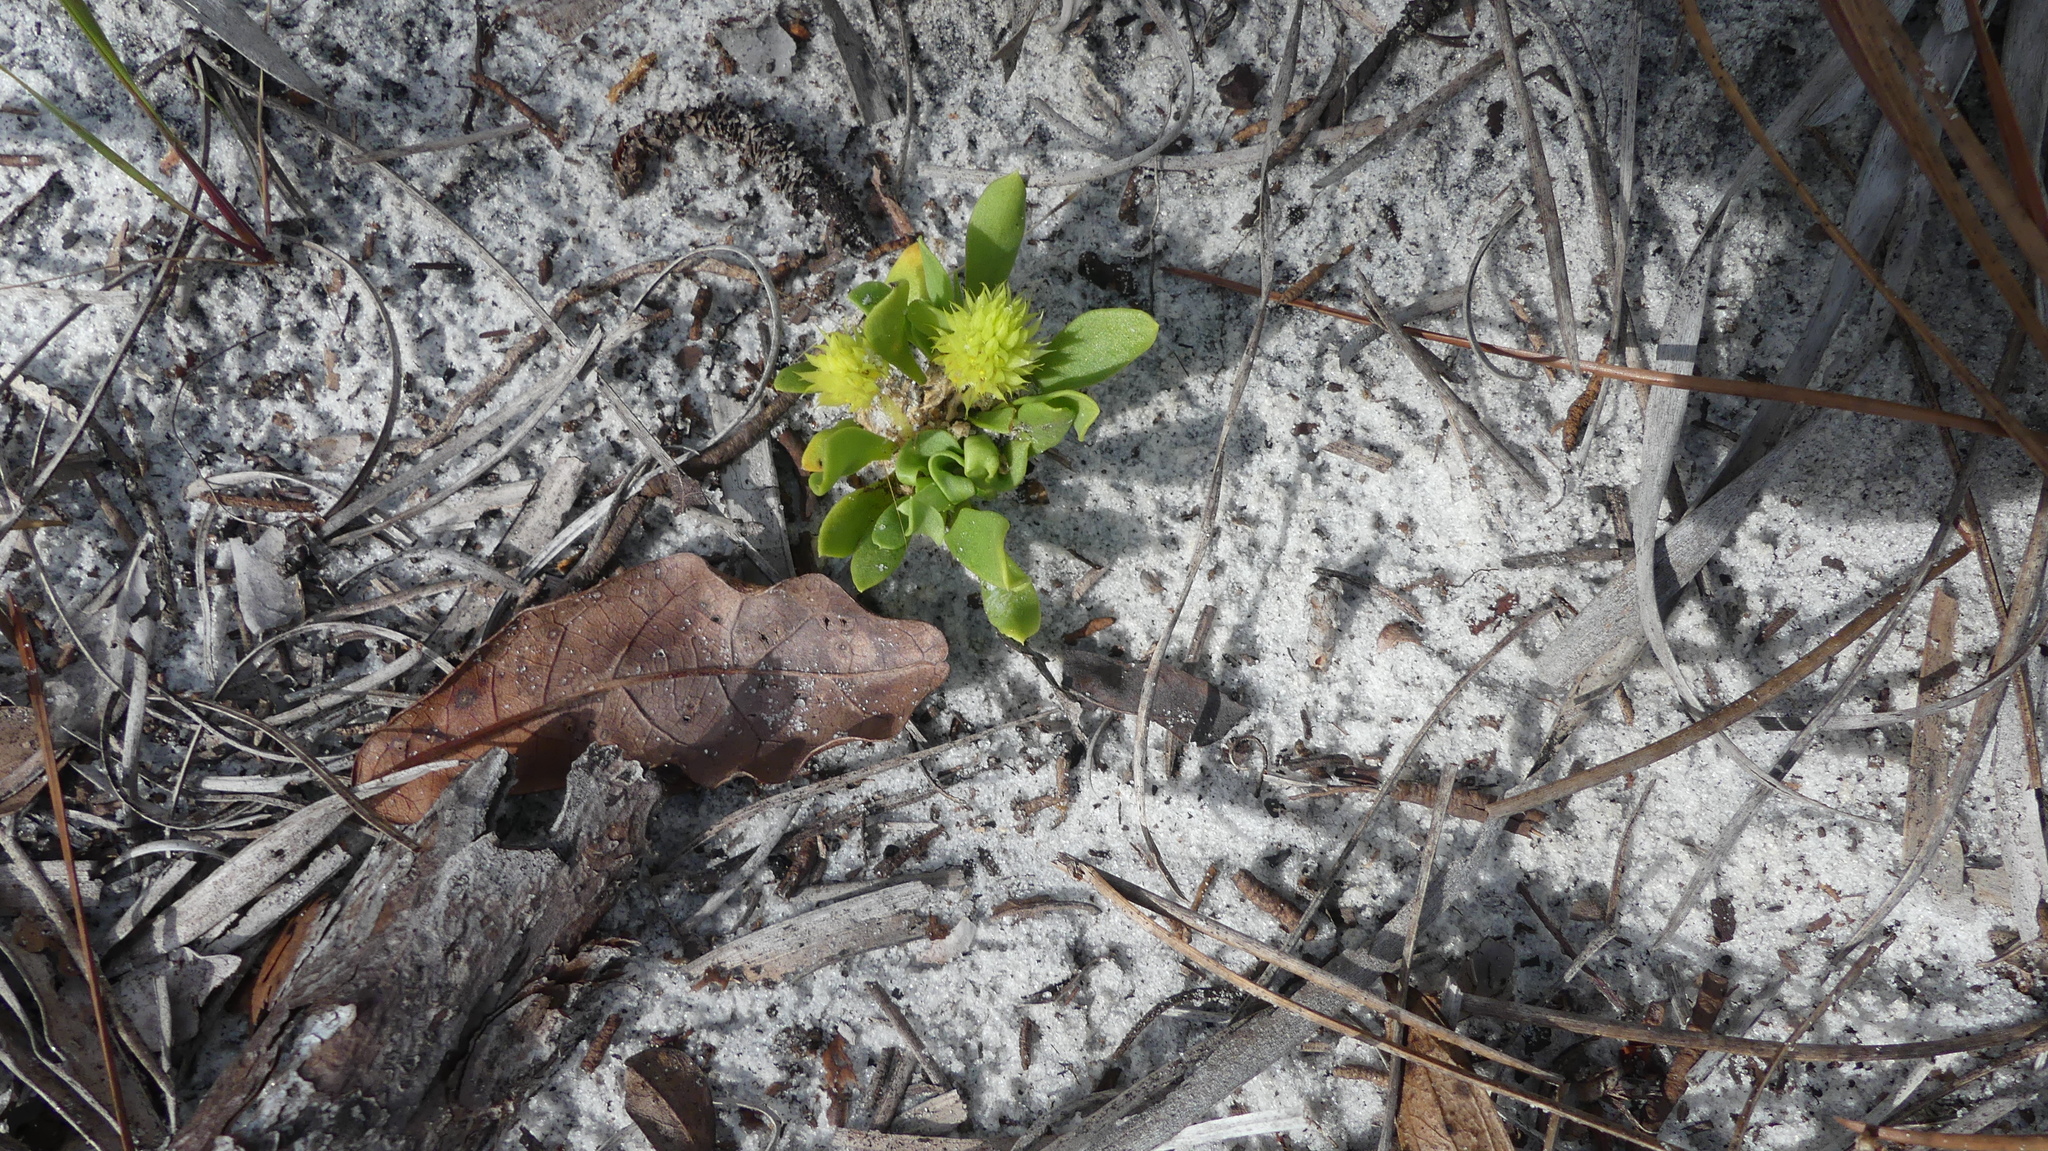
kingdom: Plantae
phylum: Tracheophyta
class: Magnoliopsida
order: Fabales
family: Polygalaceae
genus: Polygala
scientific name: Polygala nana
